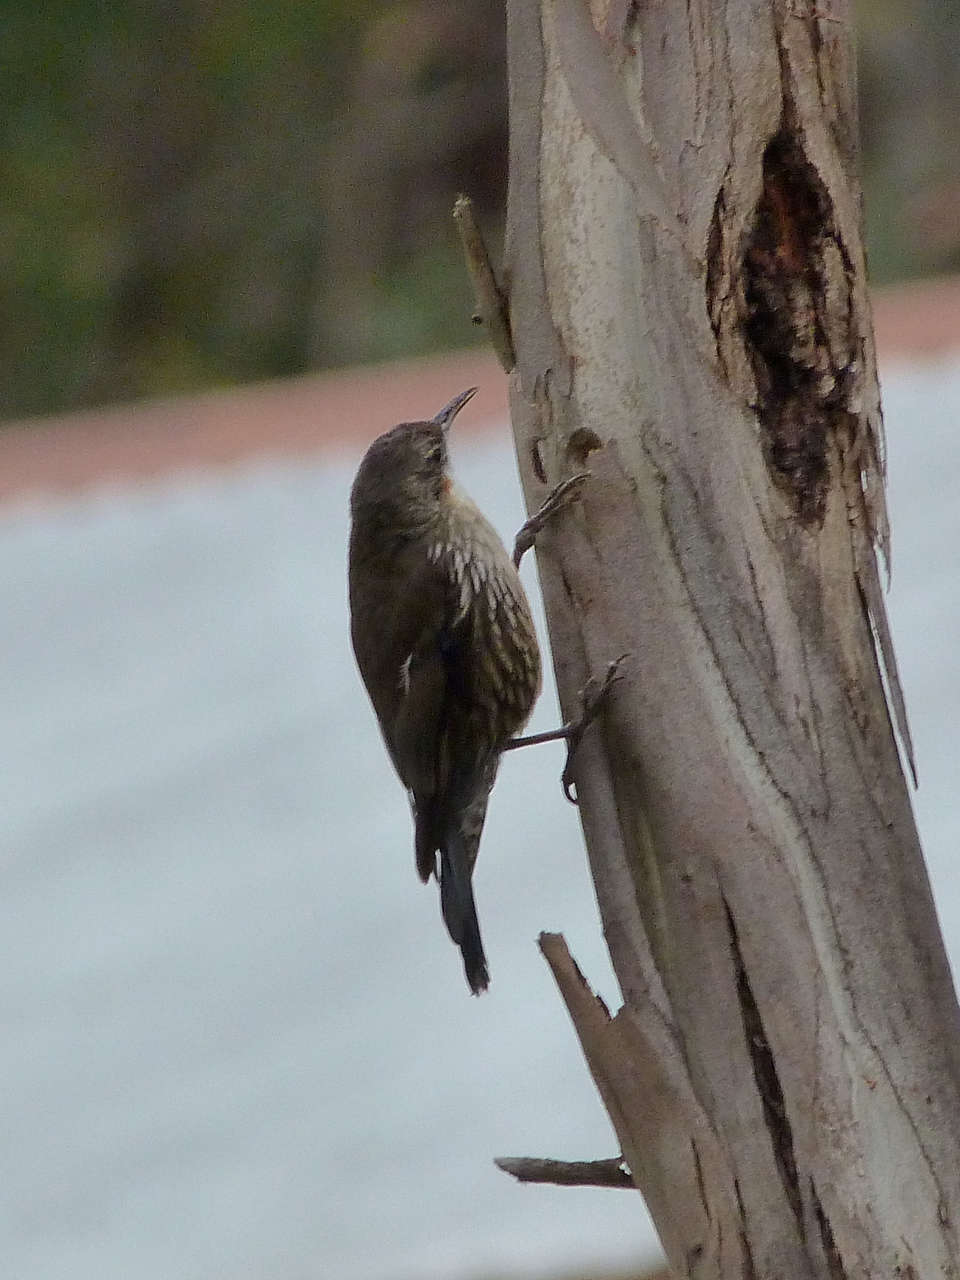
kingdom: Animalia
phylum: Chordata
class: Aves
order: Passeriformes
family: Climacteridae
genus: Cormobates
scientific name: Cormobates leucophaea
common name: White-throated treecreeper
